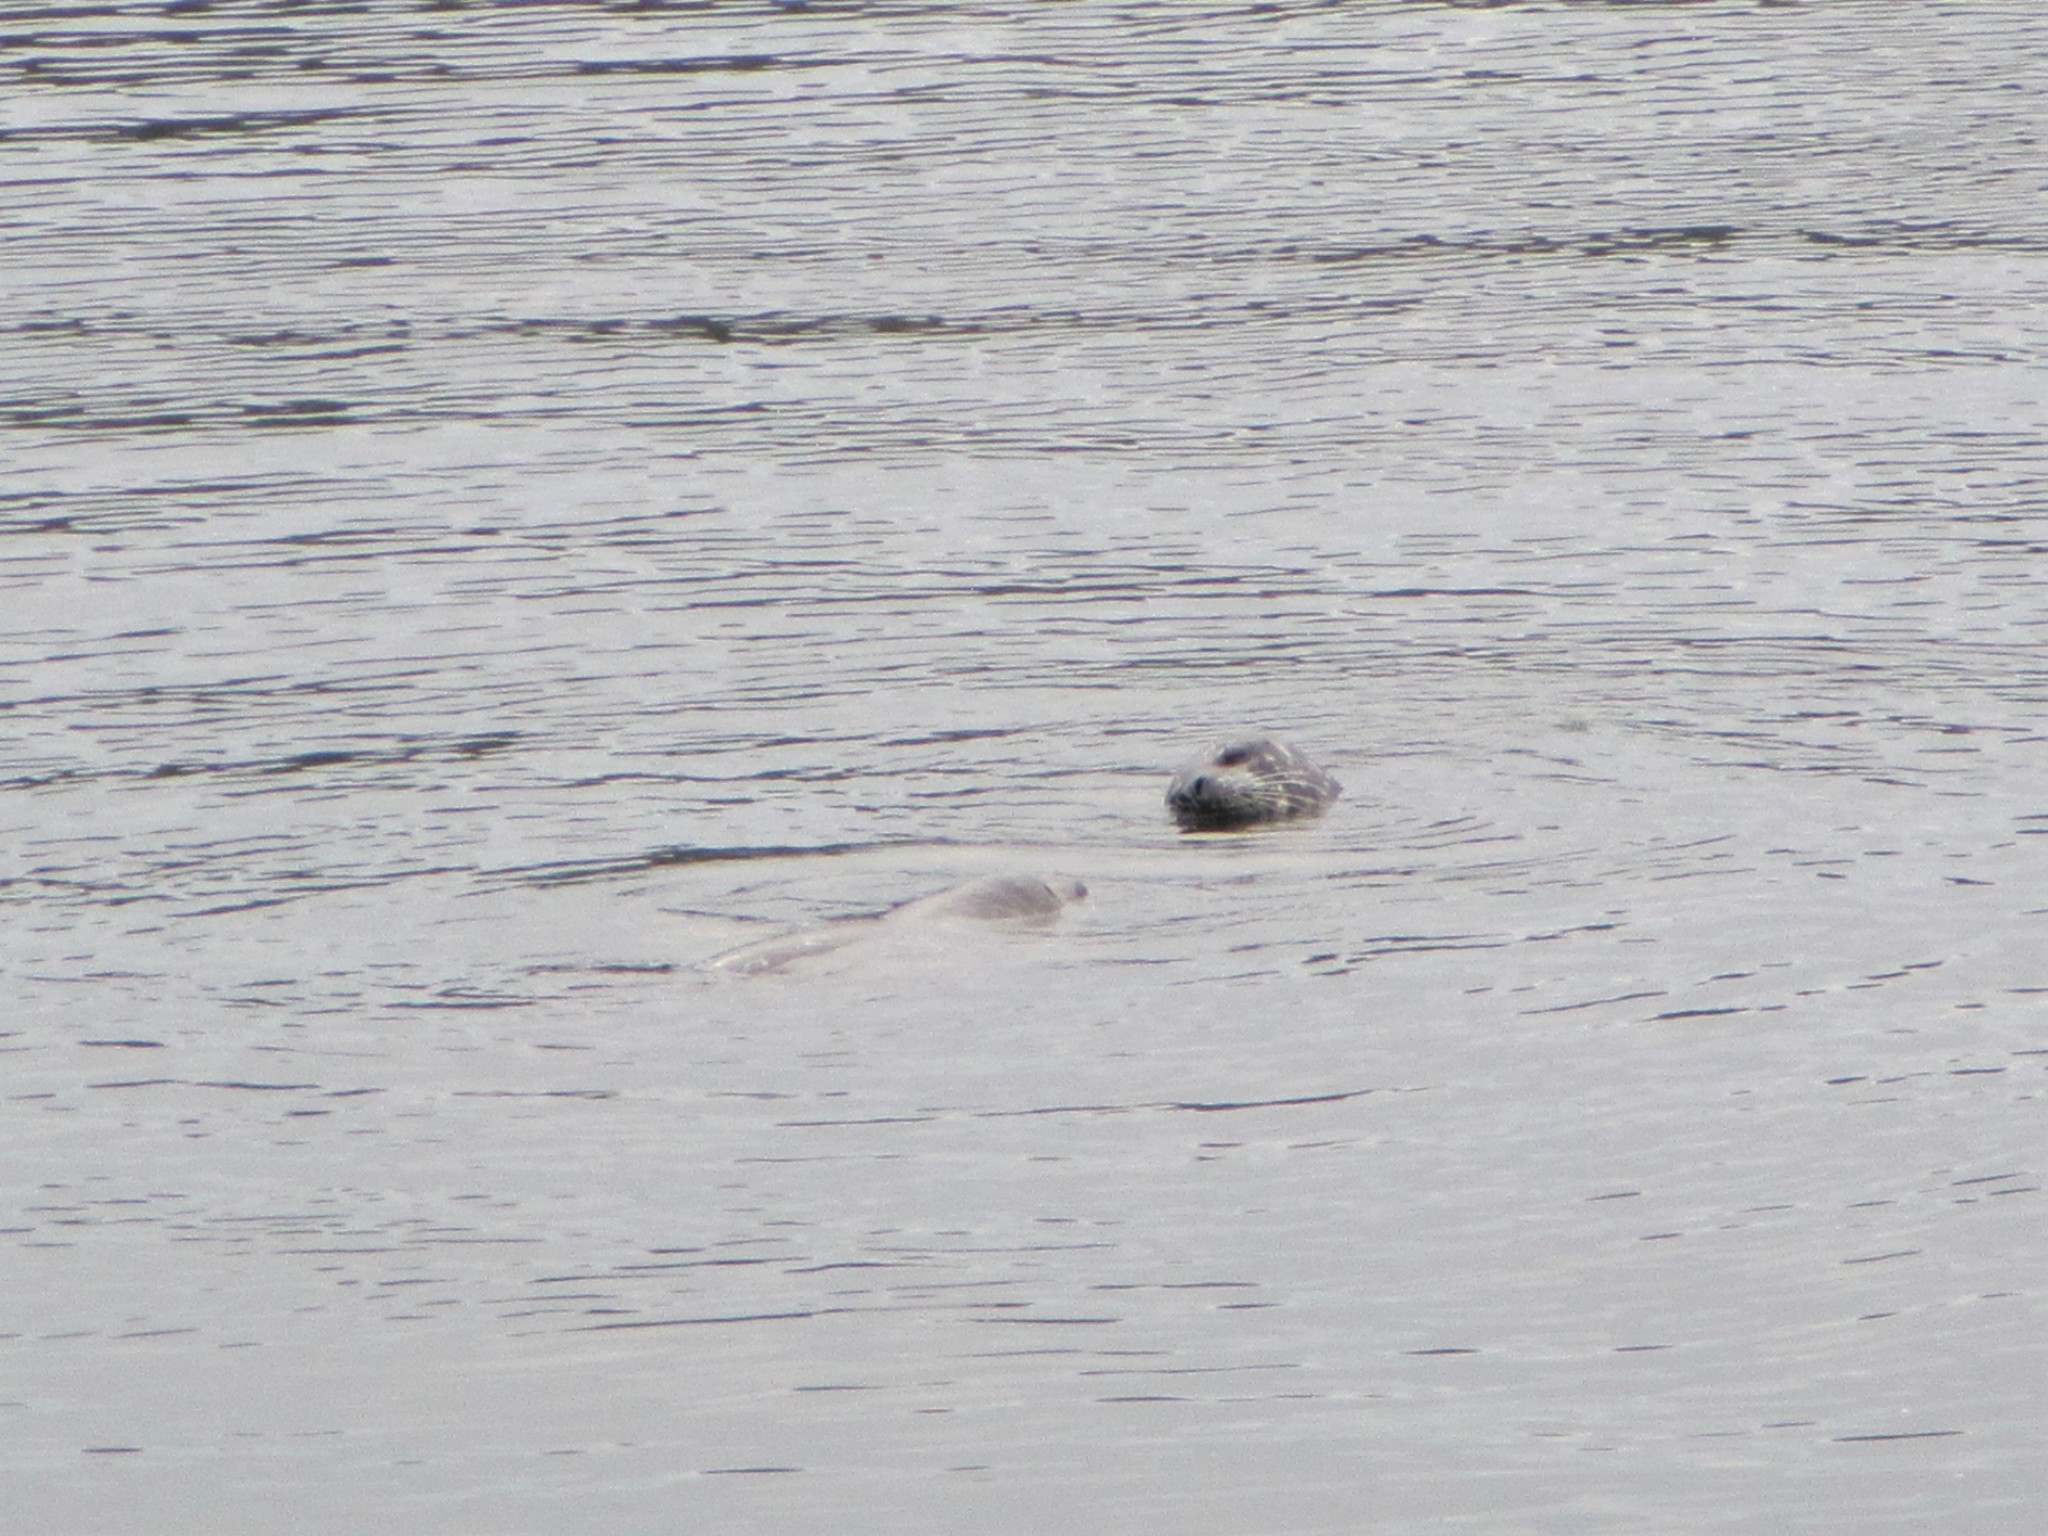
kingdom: Animalia
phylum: Chordata
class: Mammalia
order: Carnivora
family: Phocidae
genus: Phoca
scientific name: Phoca vitulina
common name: Harbor seal
